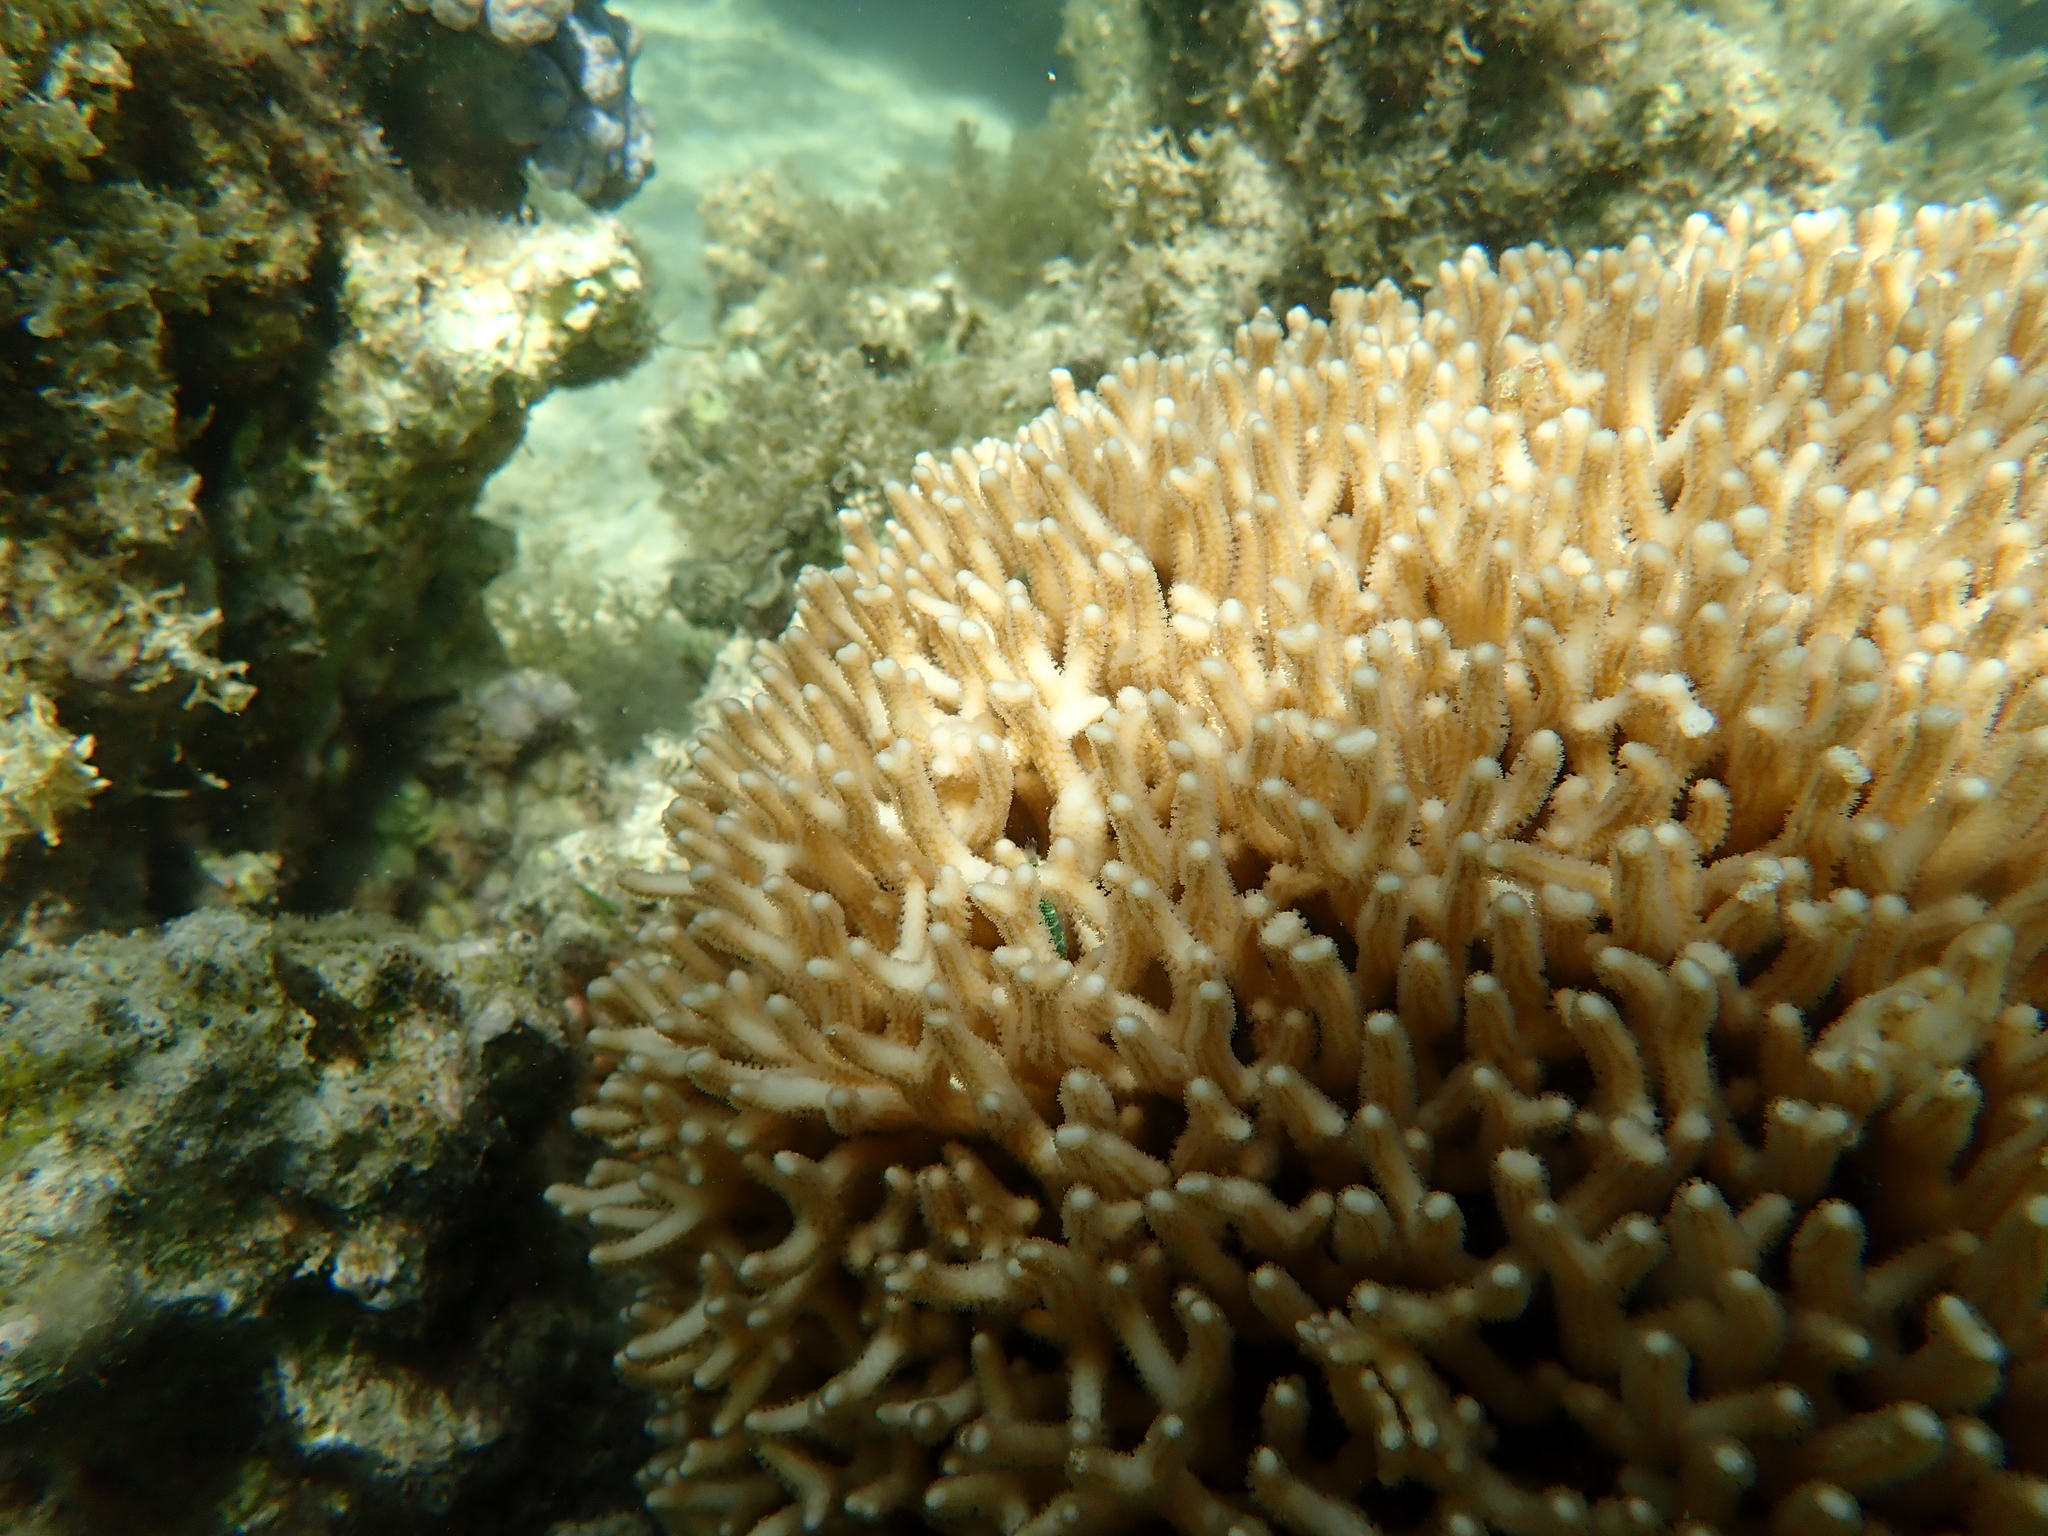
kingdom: Animalia
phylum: Cnidaria
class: Anthozoa
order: Scleractinia
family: Pocilloporidae
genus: Seriatopora
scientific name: Seriatopora caliendrum
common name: Bush coral
